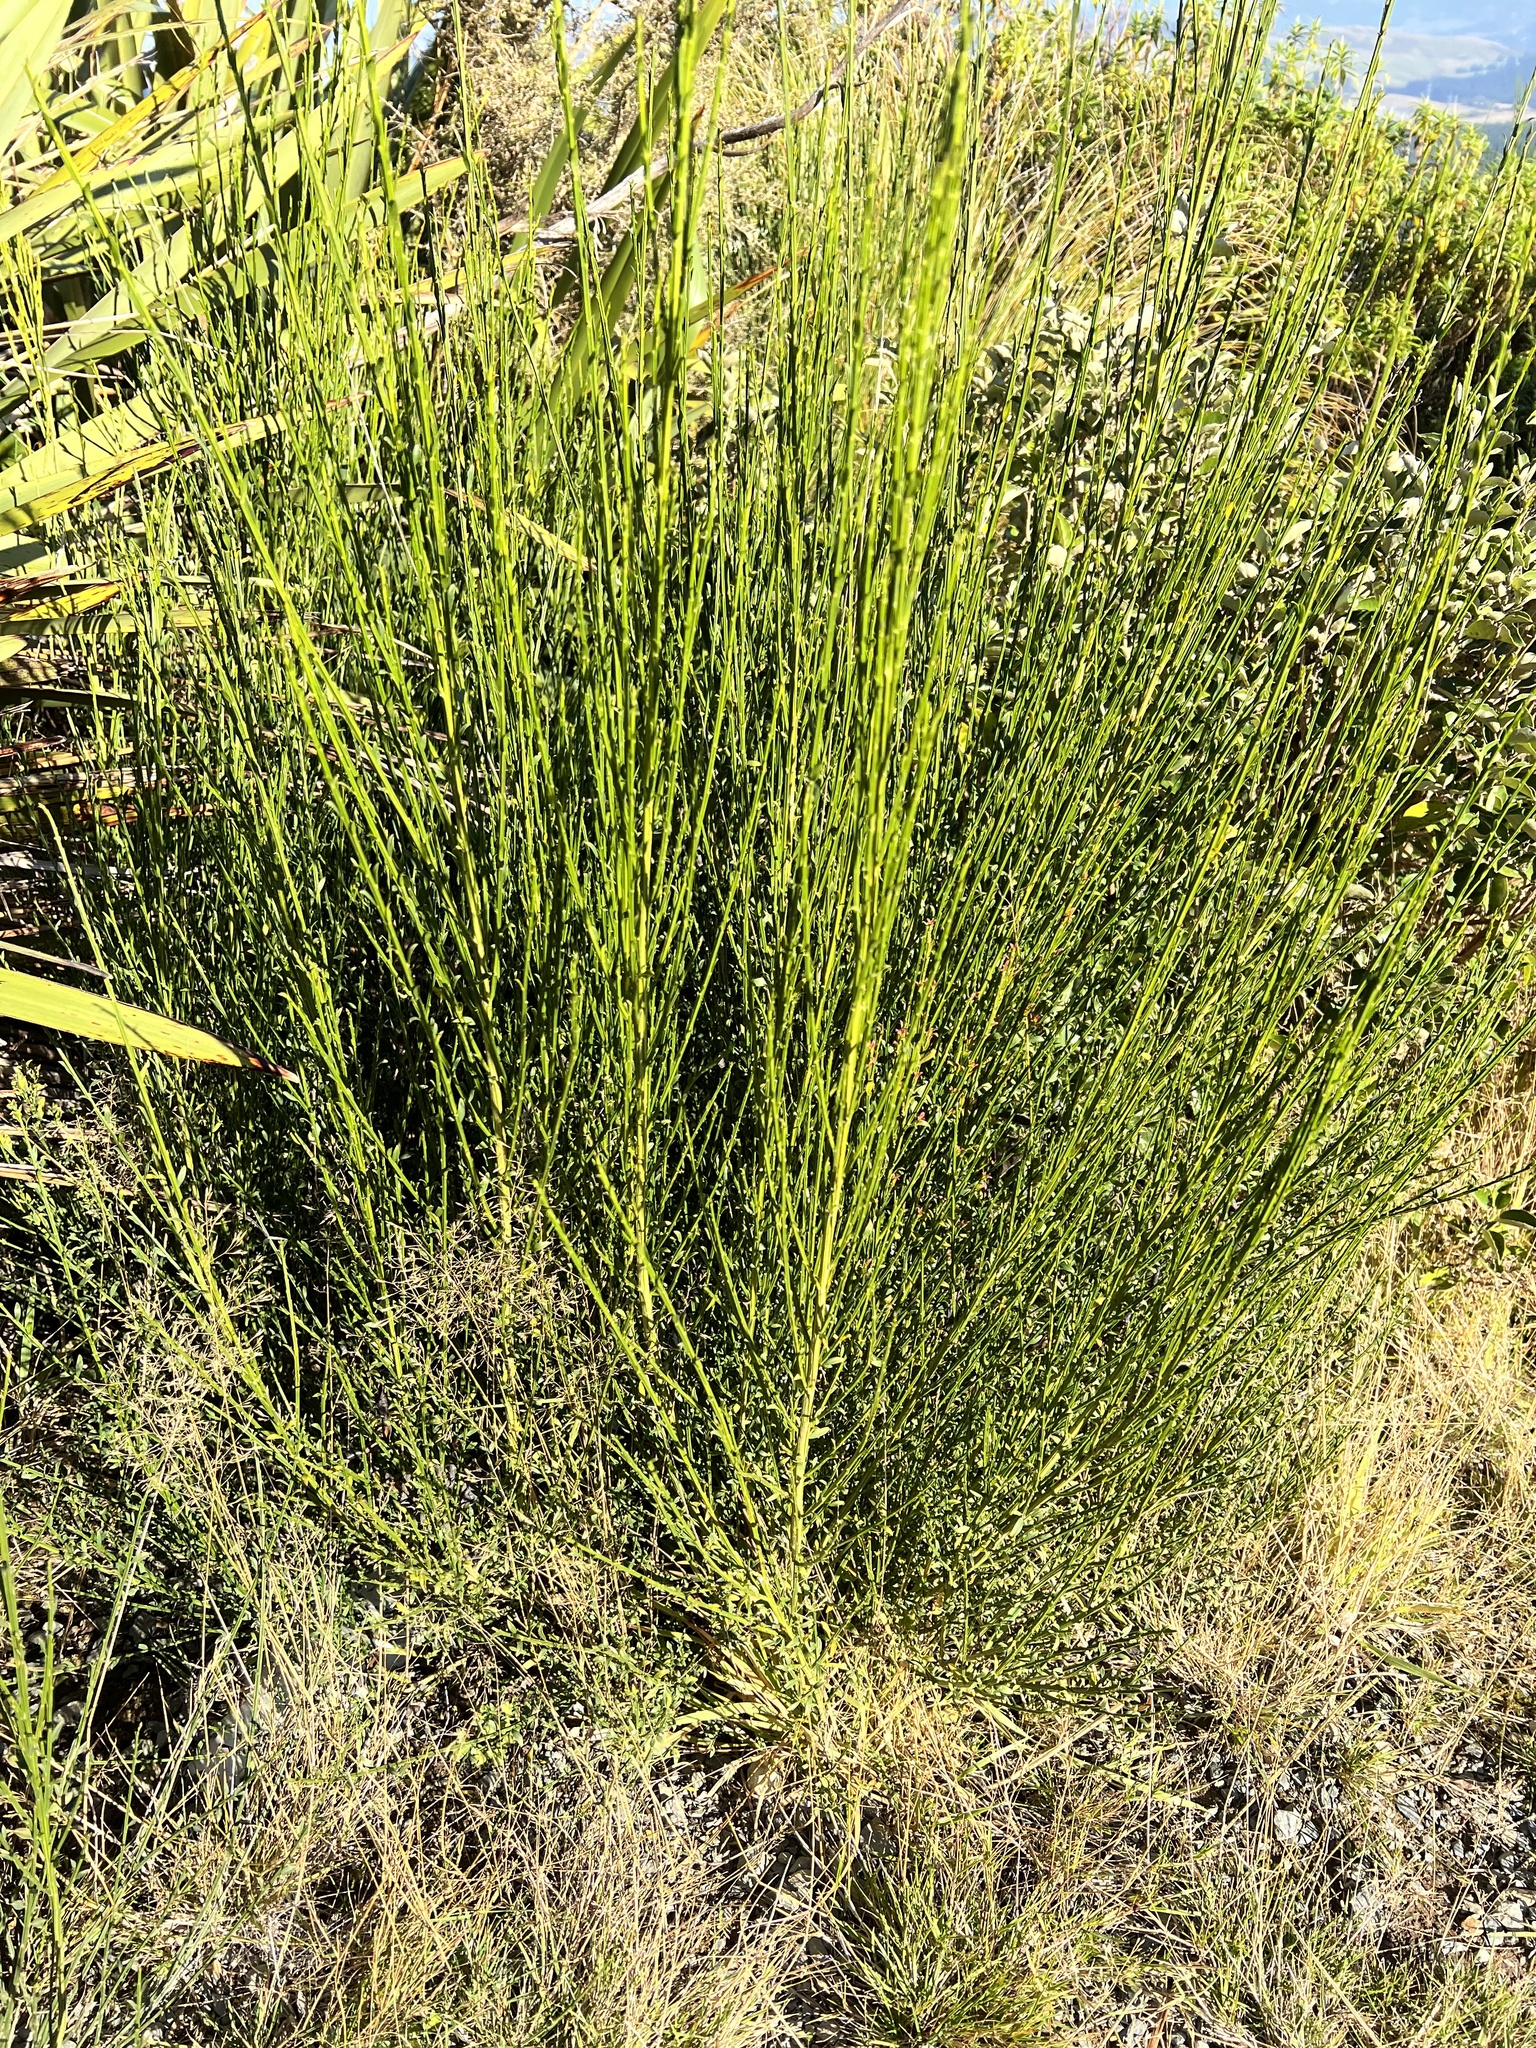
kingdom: Plantae
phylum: Tracheophyta
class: Magnoliopsida
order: Fabales
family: Fabaceae
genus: Cytisus
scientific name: Cytisus scoparius
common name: Scotch broom
